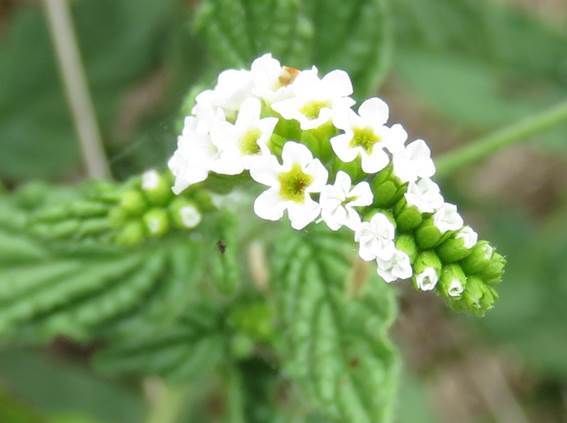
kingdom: Plantae
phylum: Tracheophyta
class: Magnoliopsida
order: Boraginales
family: Heliotropiaceae
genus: Heliotropium
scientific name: Heliotropium angiospermum
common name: Eye bright
